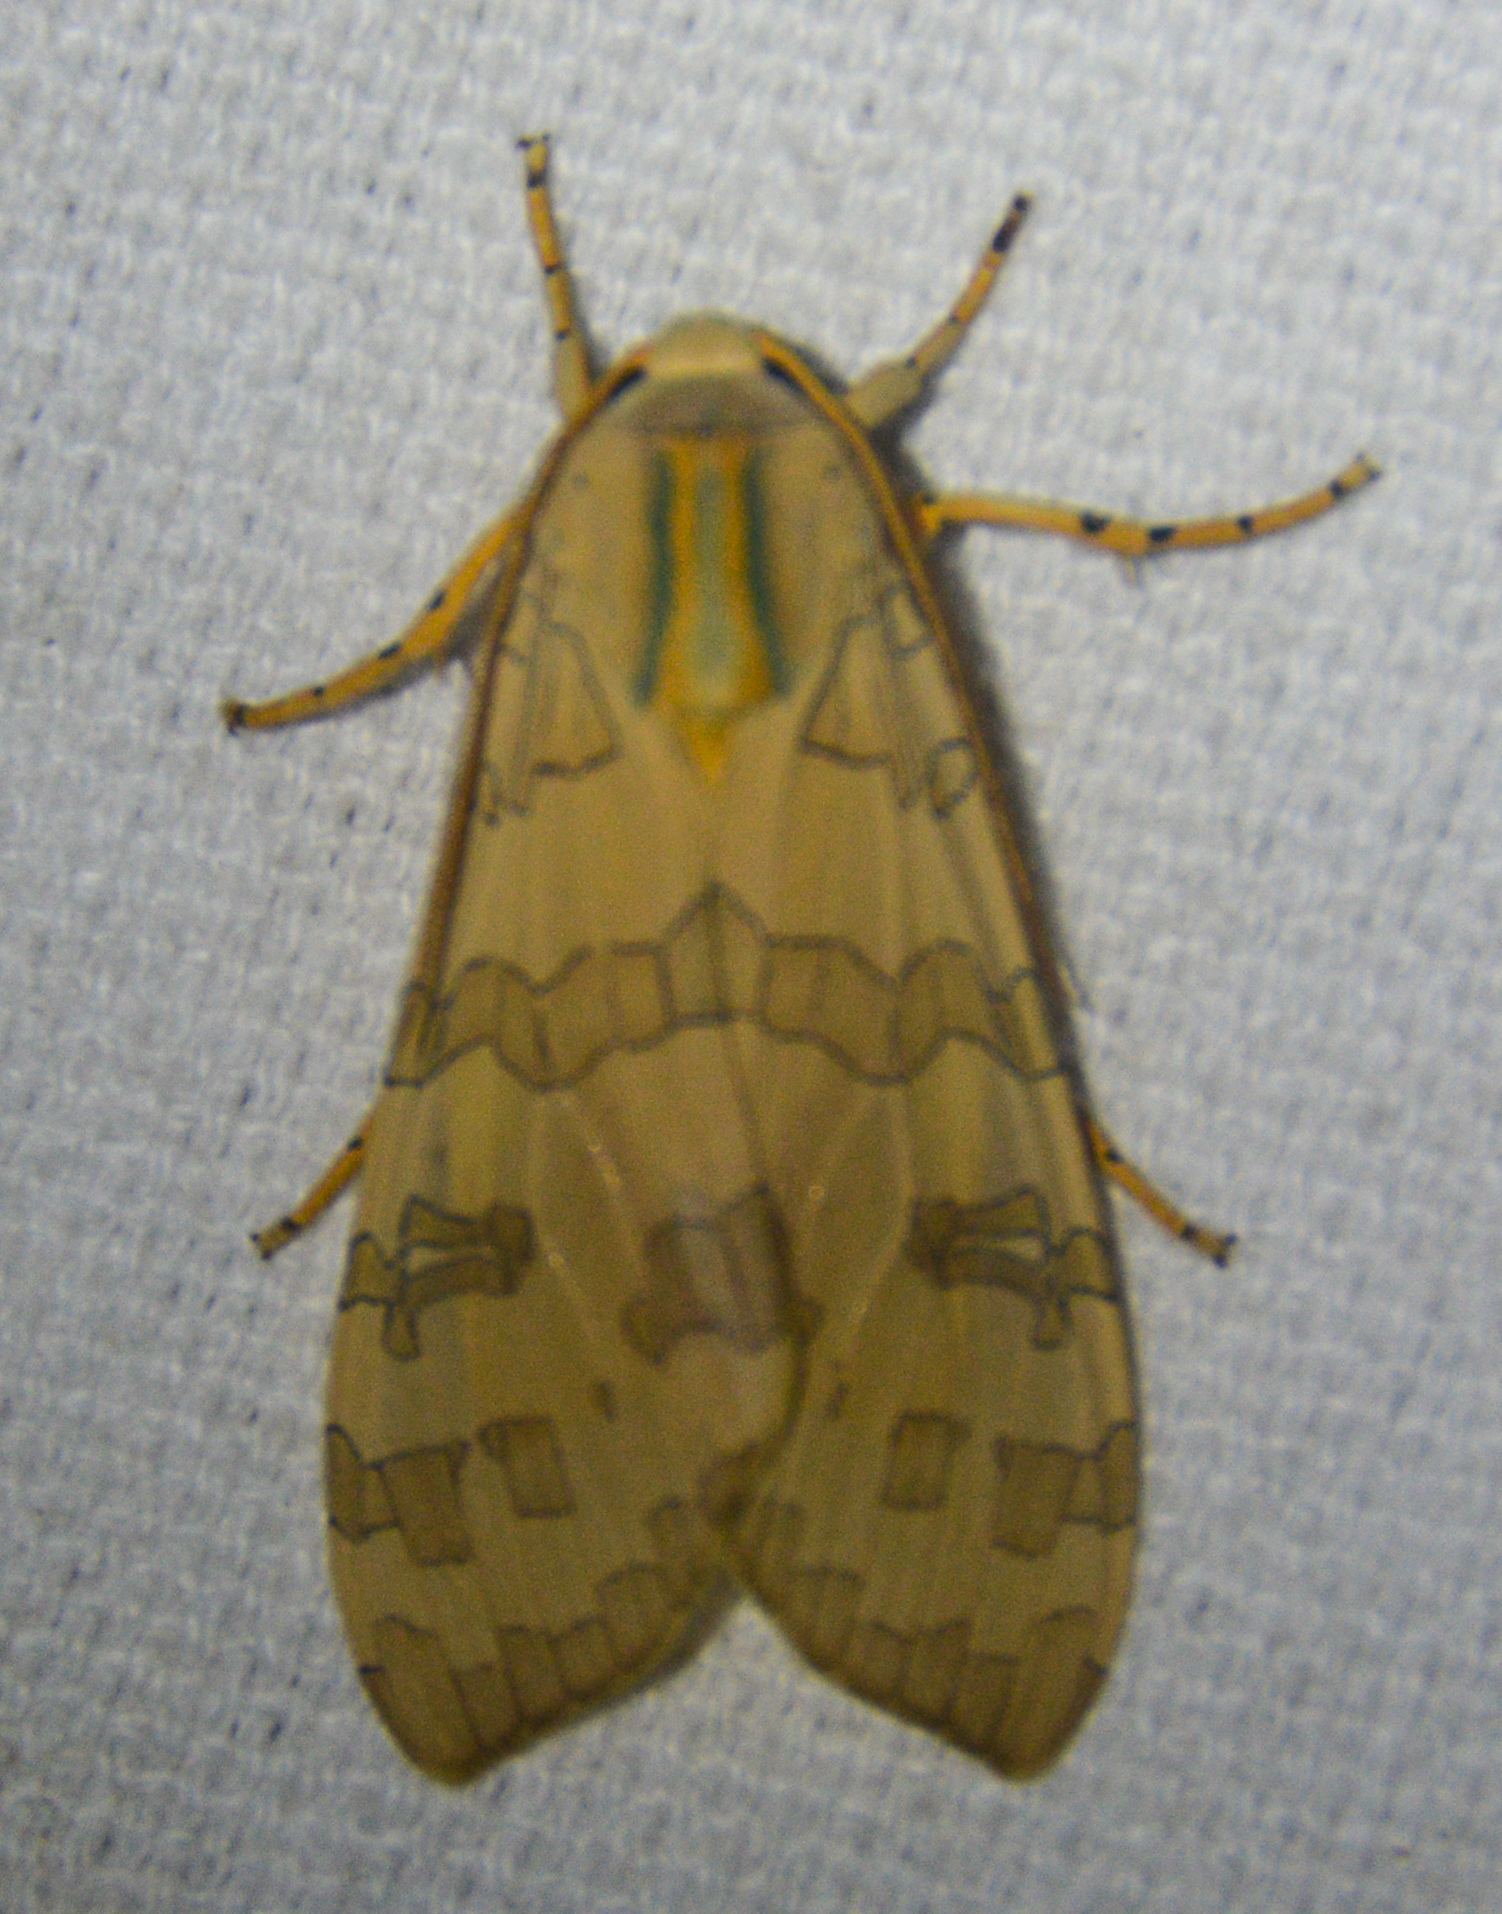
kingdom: Animalia
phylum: Arthropoda
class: Insecta
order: Lepidoptera
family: Erebidae
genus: Halysidota
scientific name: Halysidota
